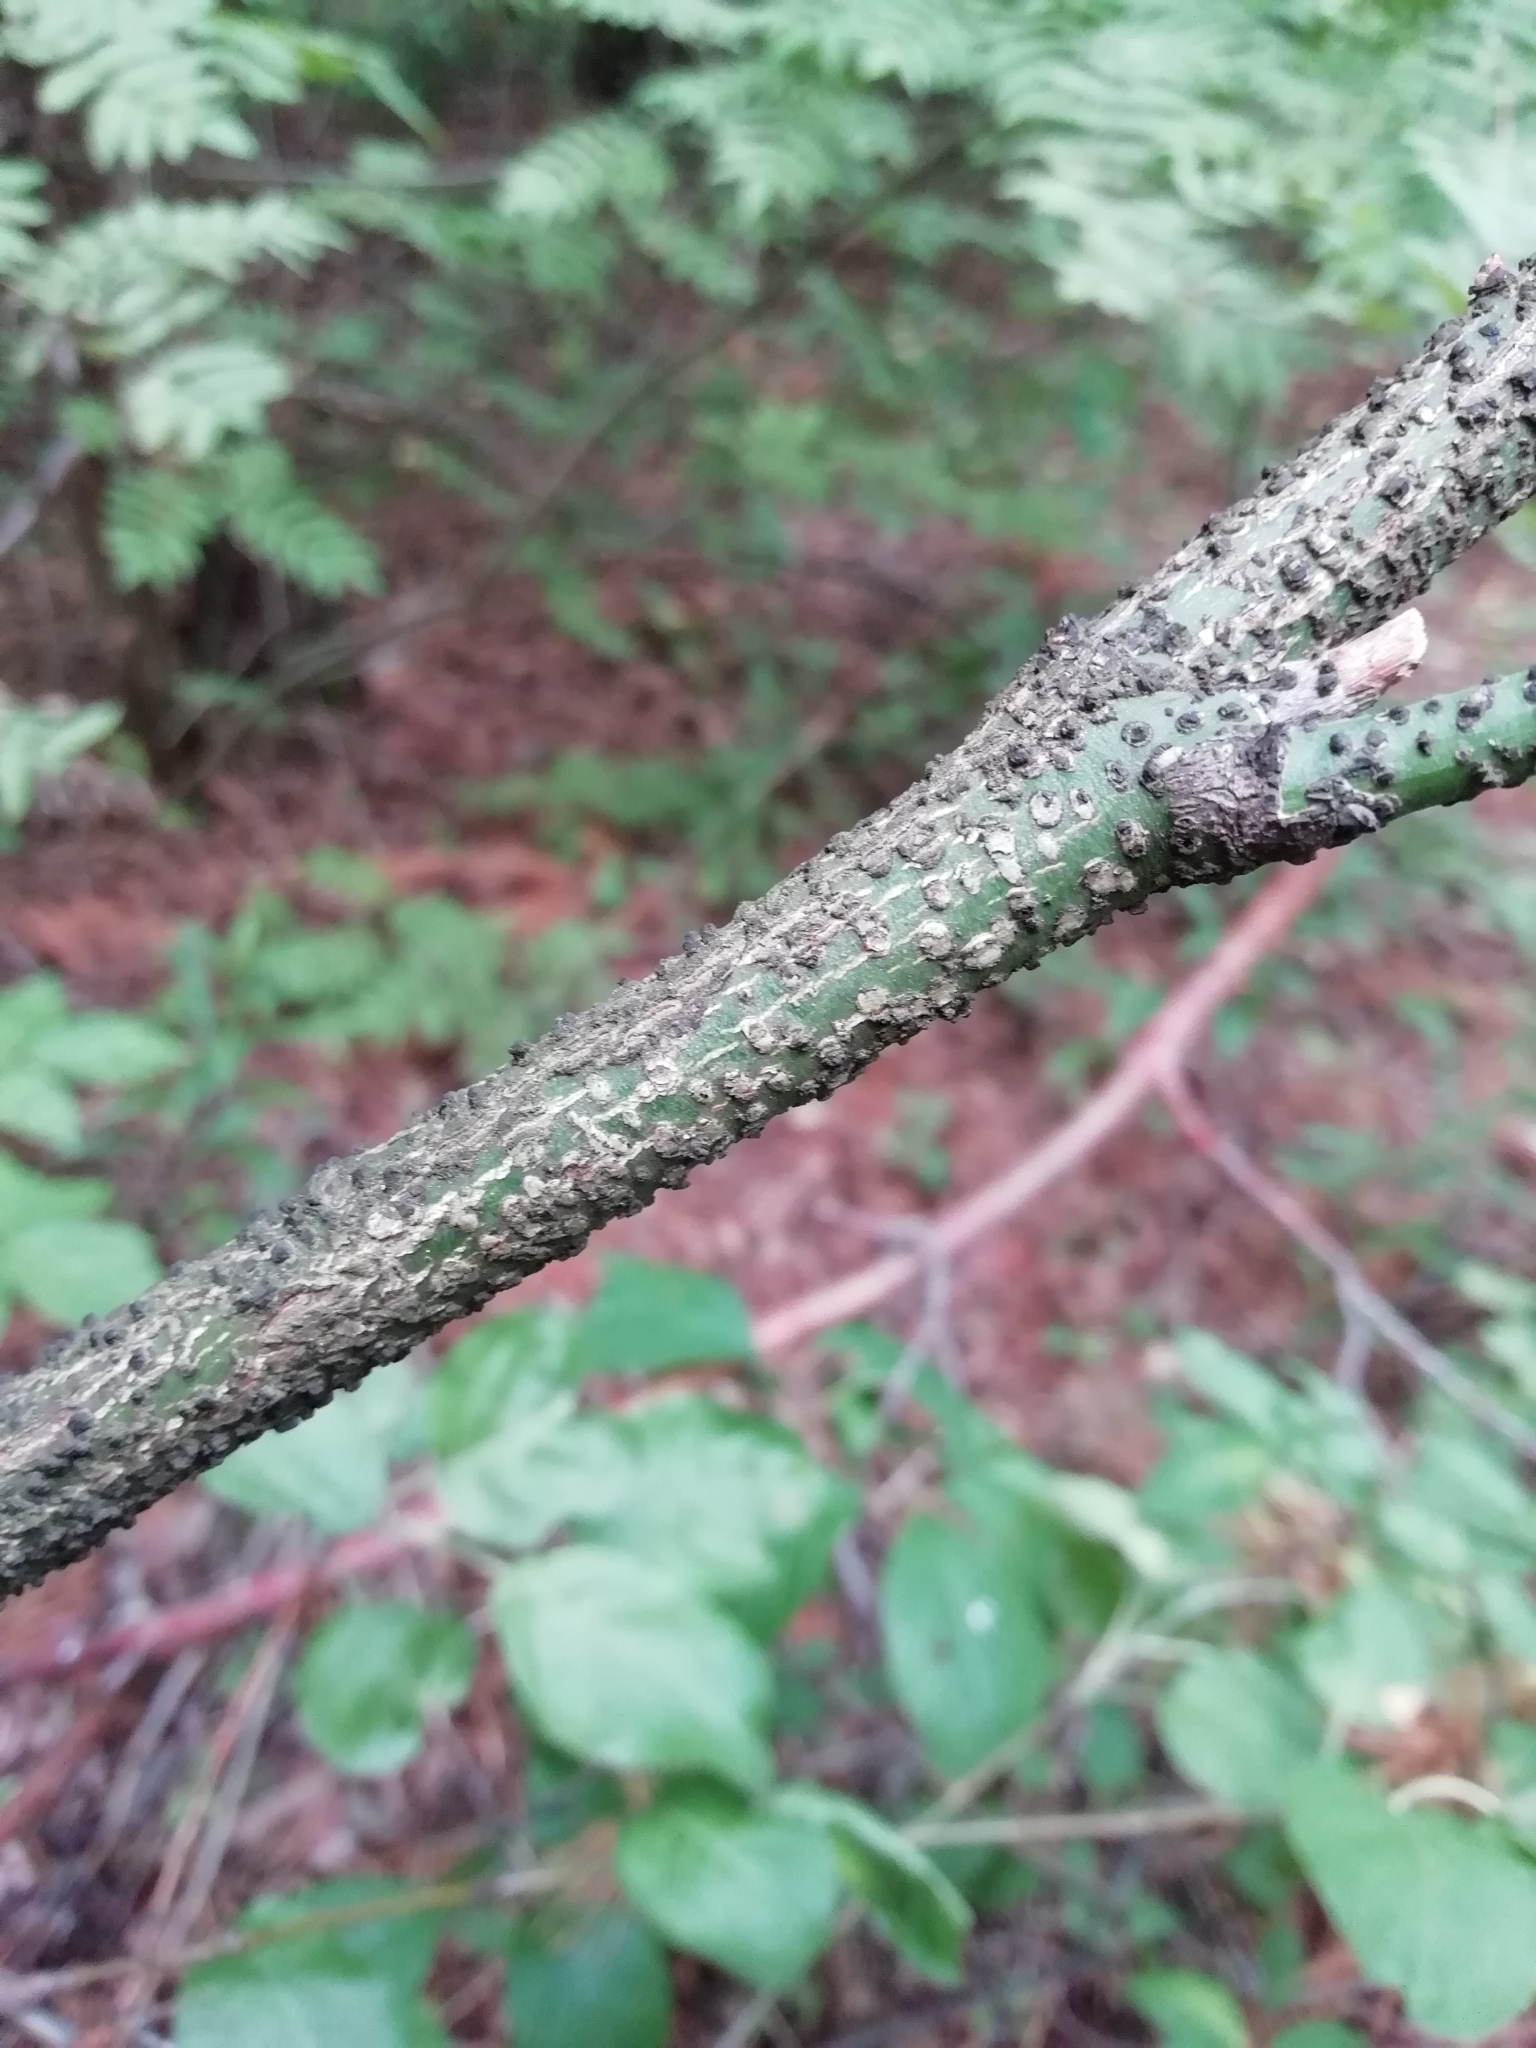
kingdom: Plantae
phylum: Tracheophyta
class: Magnoliopsida
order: Celastrales
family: Celastraceae
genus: Euonymus
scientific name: Euonymus verrucosus
